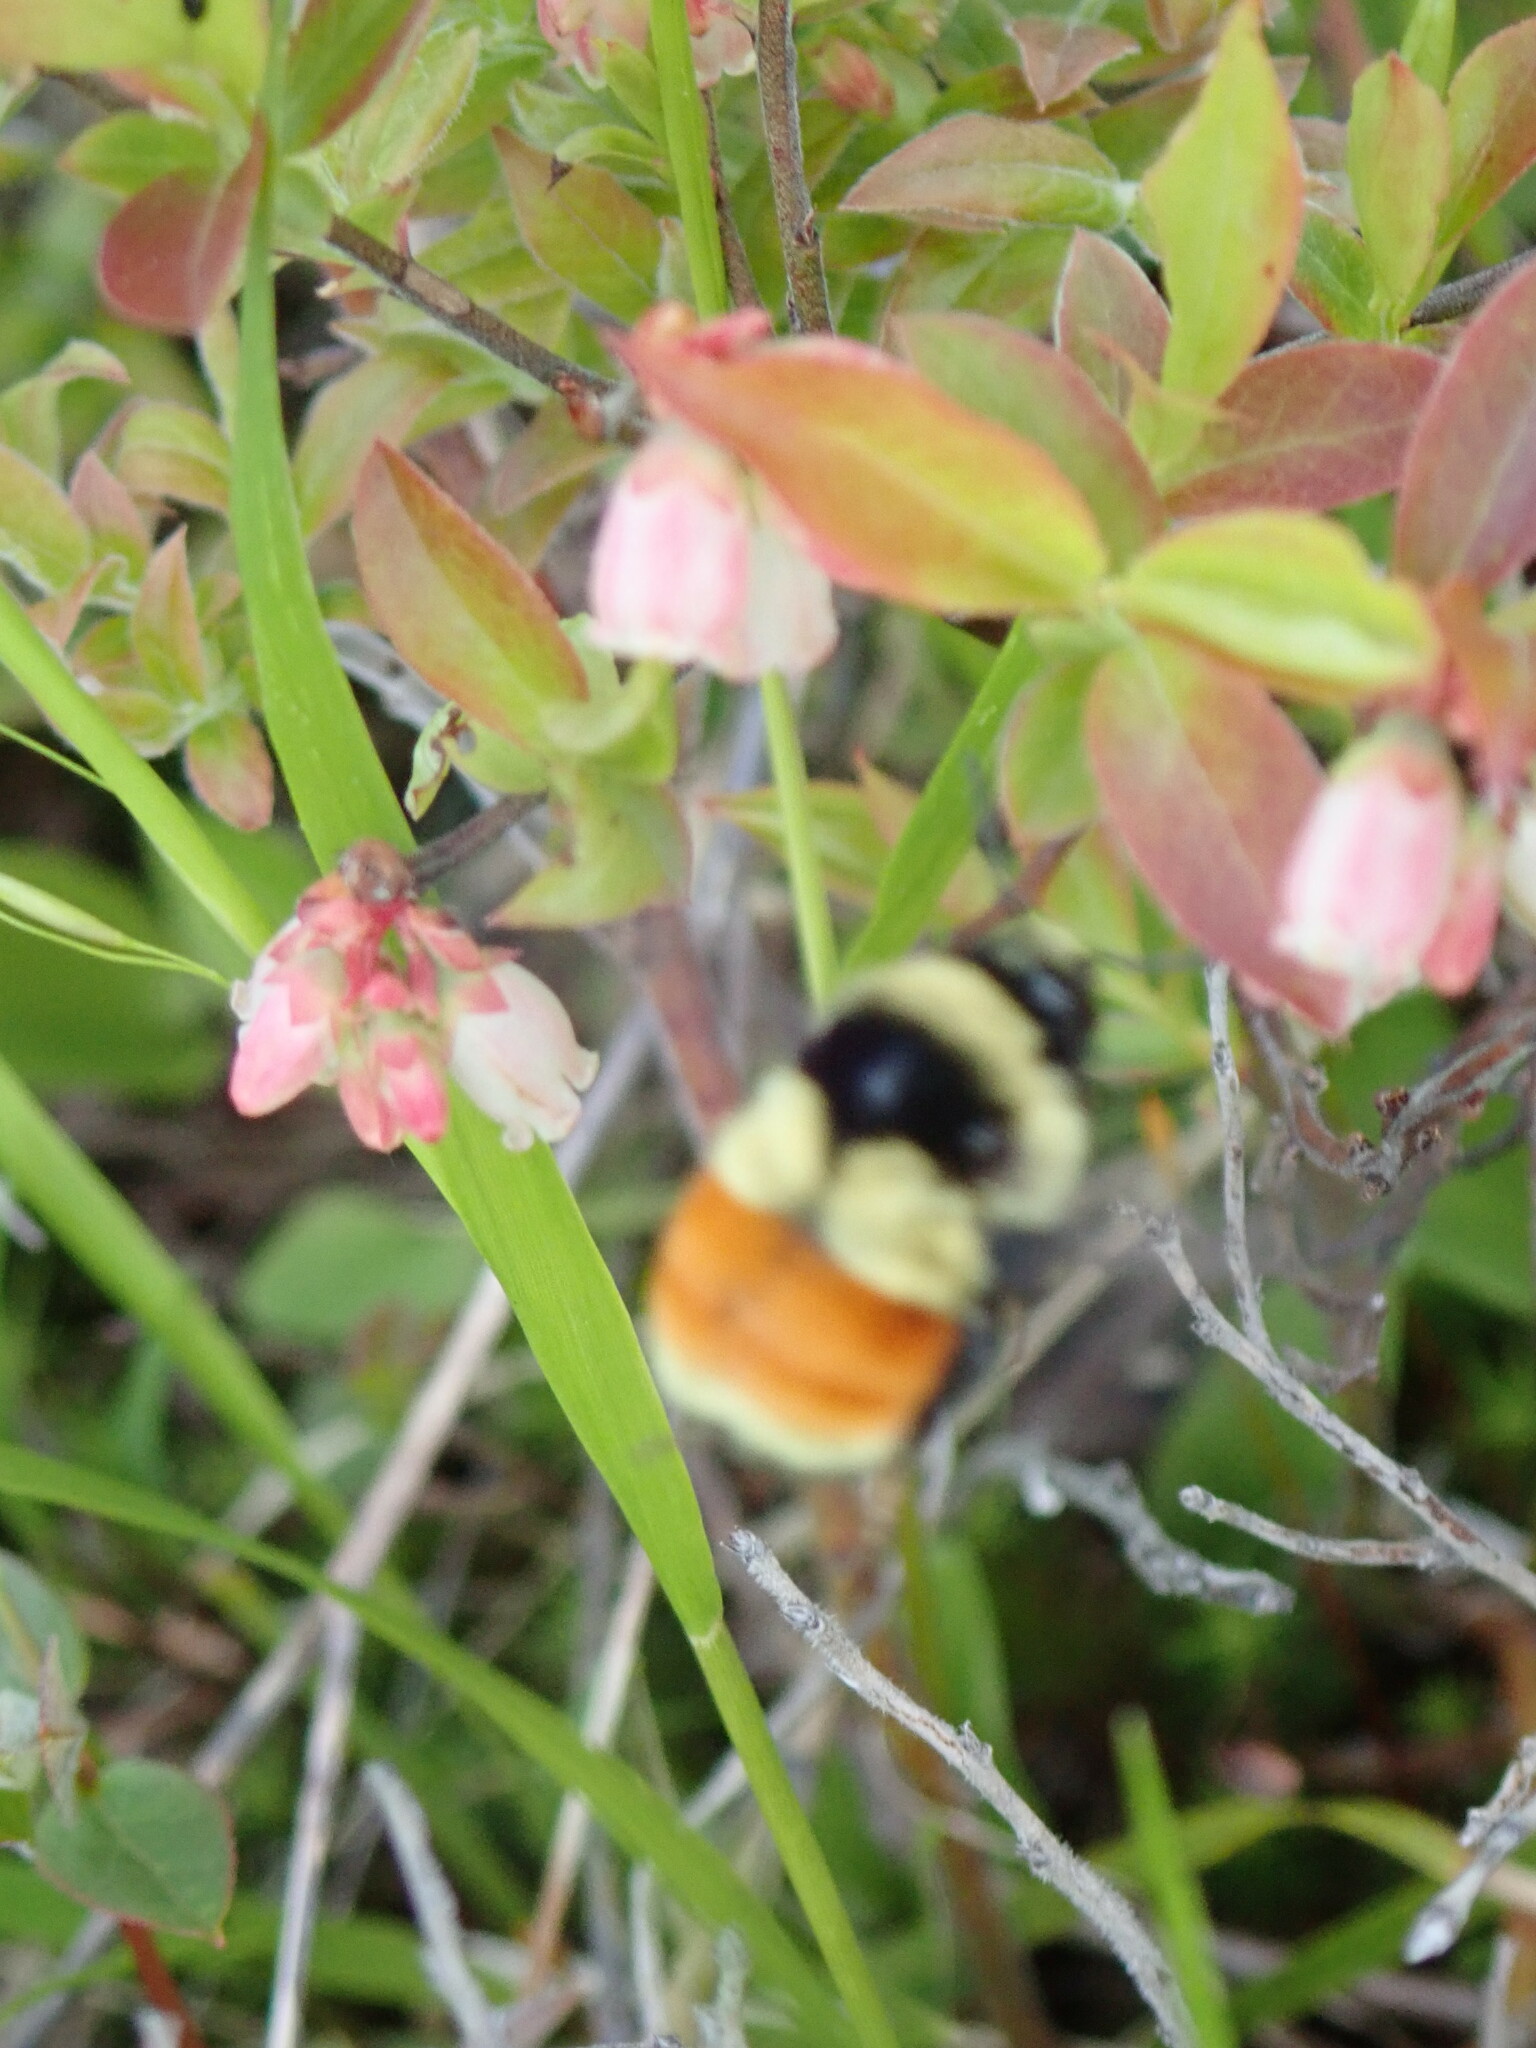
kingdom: Animalia
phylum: Arthropoda
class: Insecta
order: Hymenoptera
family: Apidae
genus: Bombus
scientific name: Bombus ternarius
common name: Tri-colored bumble bee
